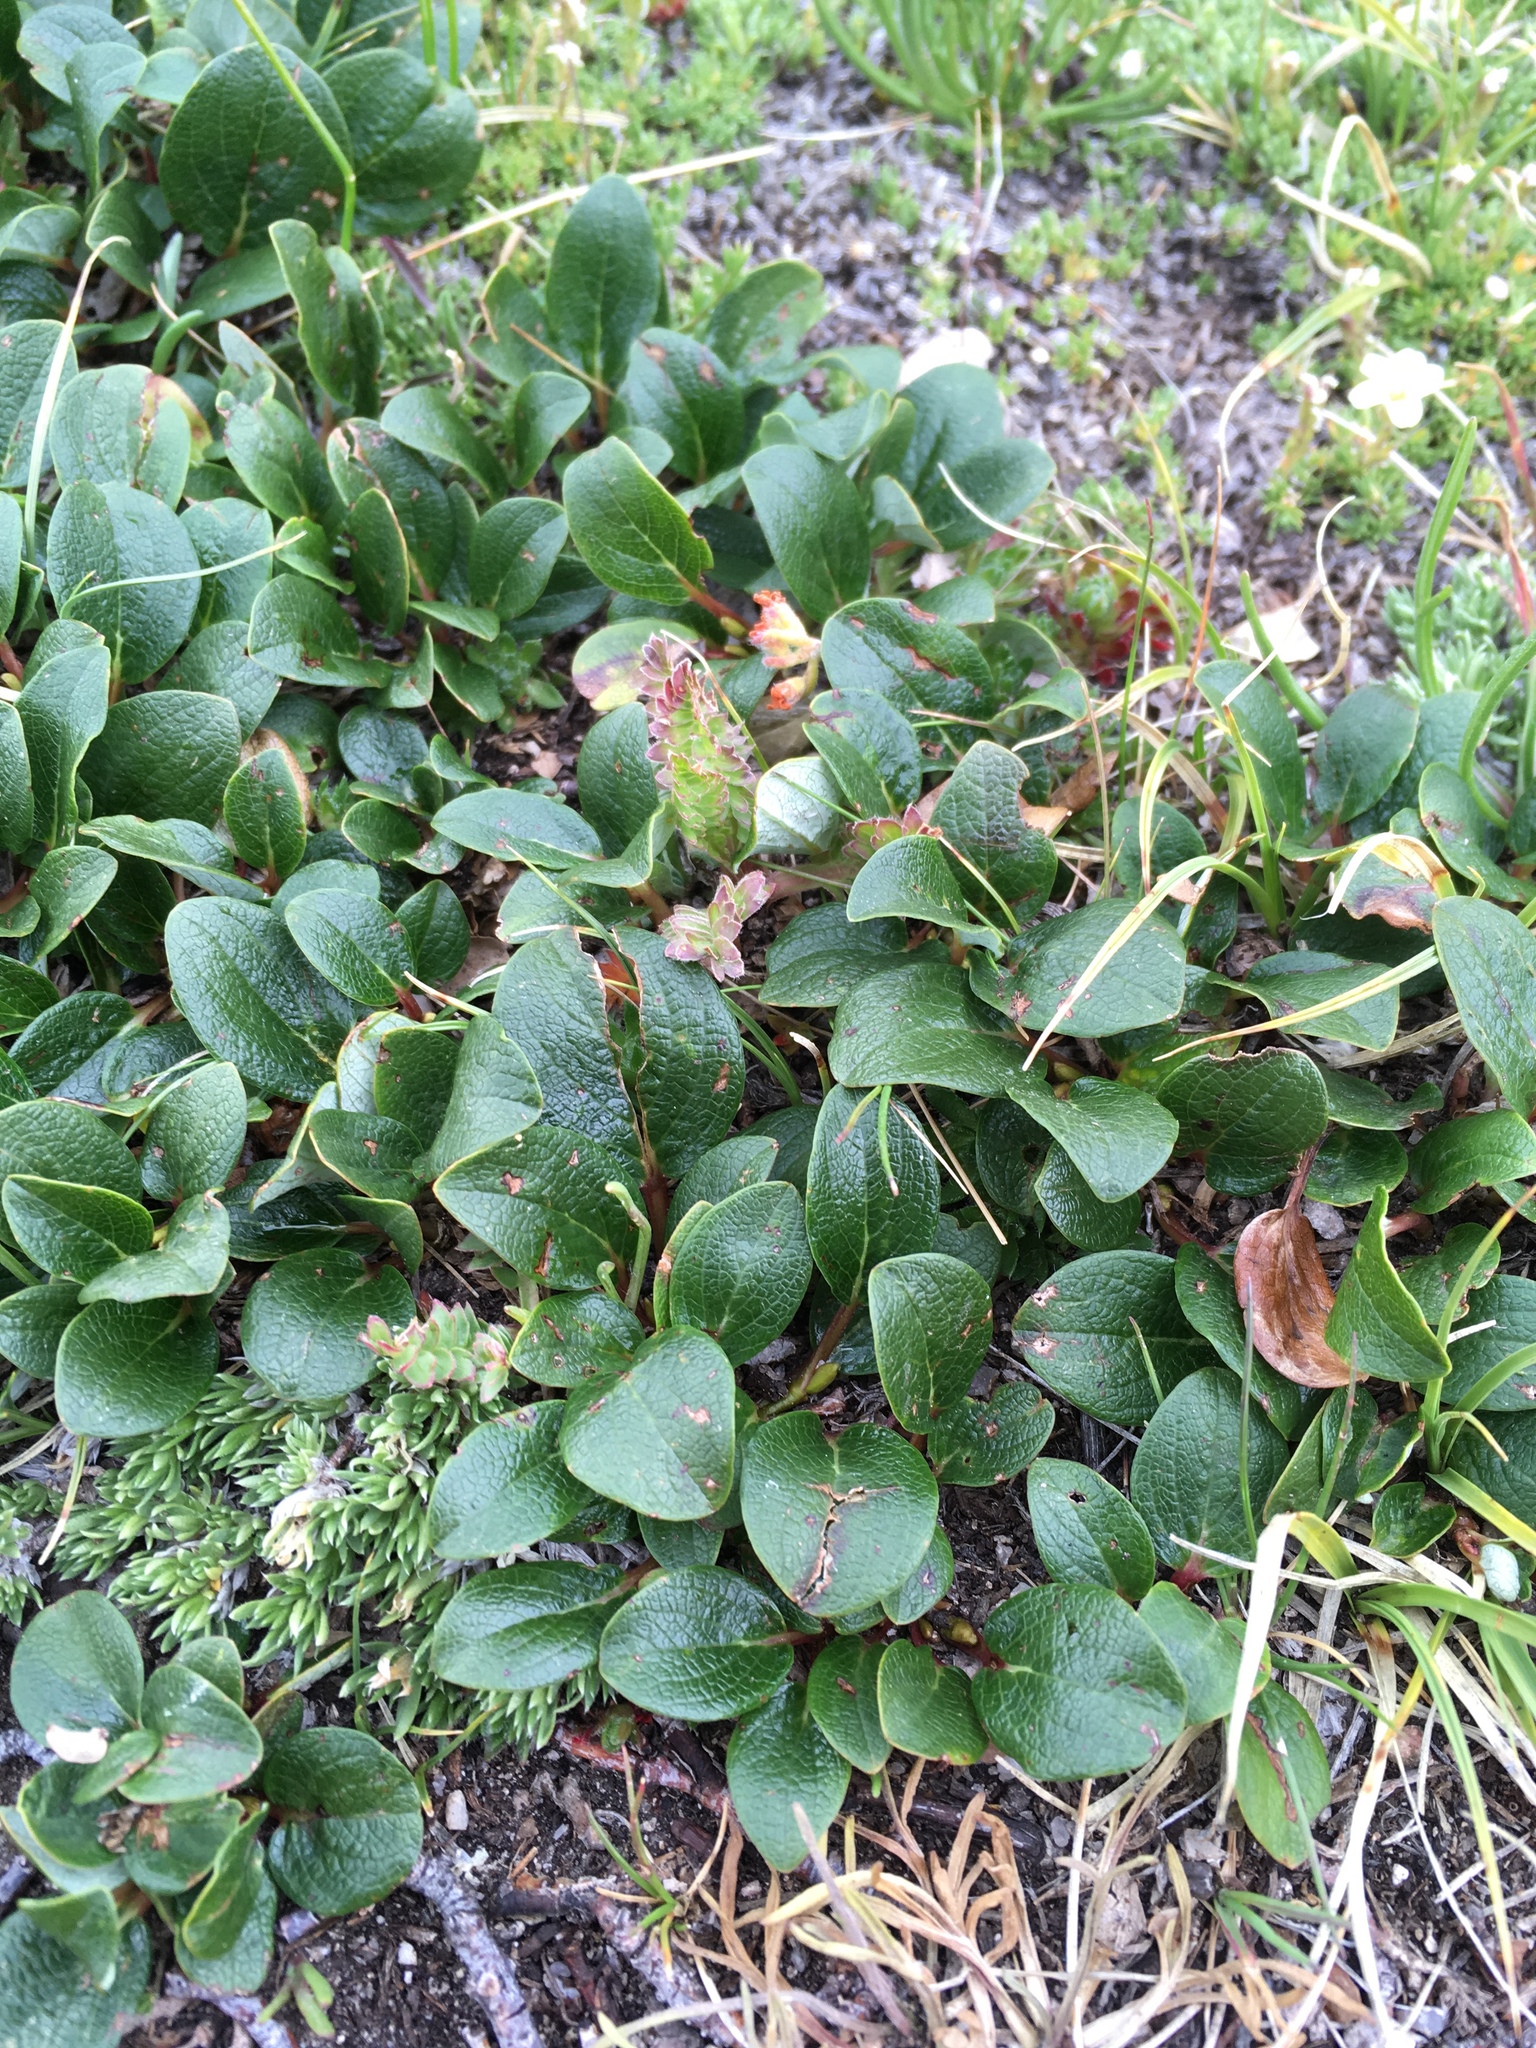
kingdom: Plantae
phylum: Tracheophyta
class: Magnoliopsida
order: Malpighiales
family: Salicaceae
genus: Salix
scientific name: Salix nivalis
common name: Dwarf snow willow
